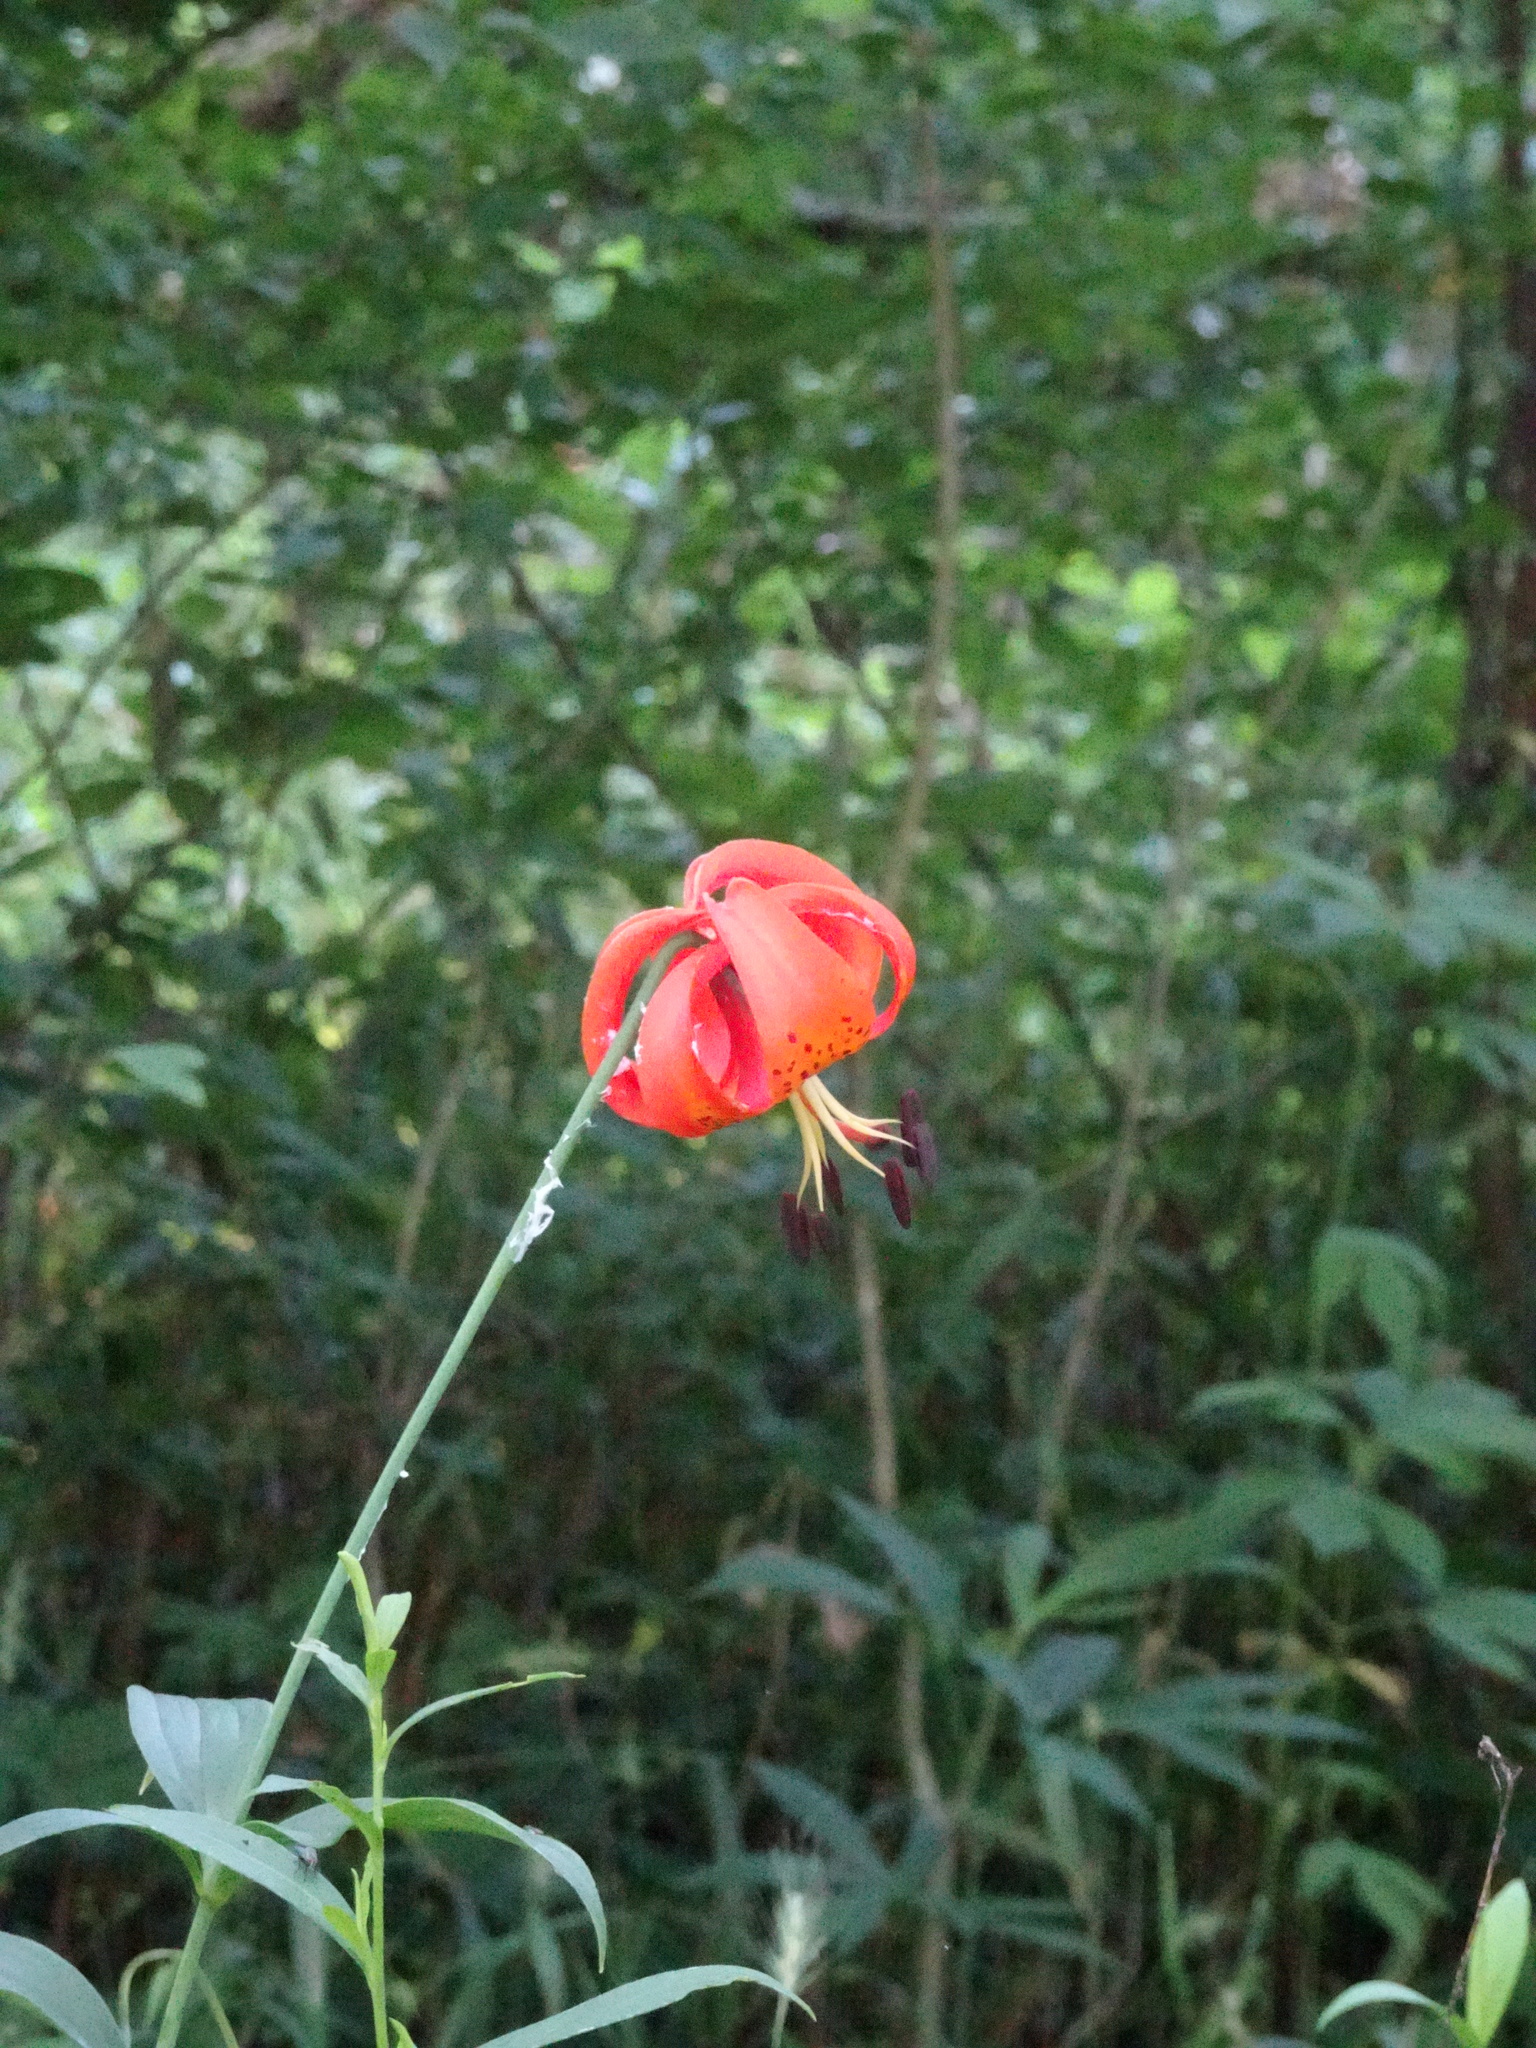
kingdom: Plantae
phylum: Tracheophyta
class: Liliopsida
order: Liliales
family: Liliaceae
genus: Lilium
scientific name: Lilium michiganense
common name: Michigan lily
